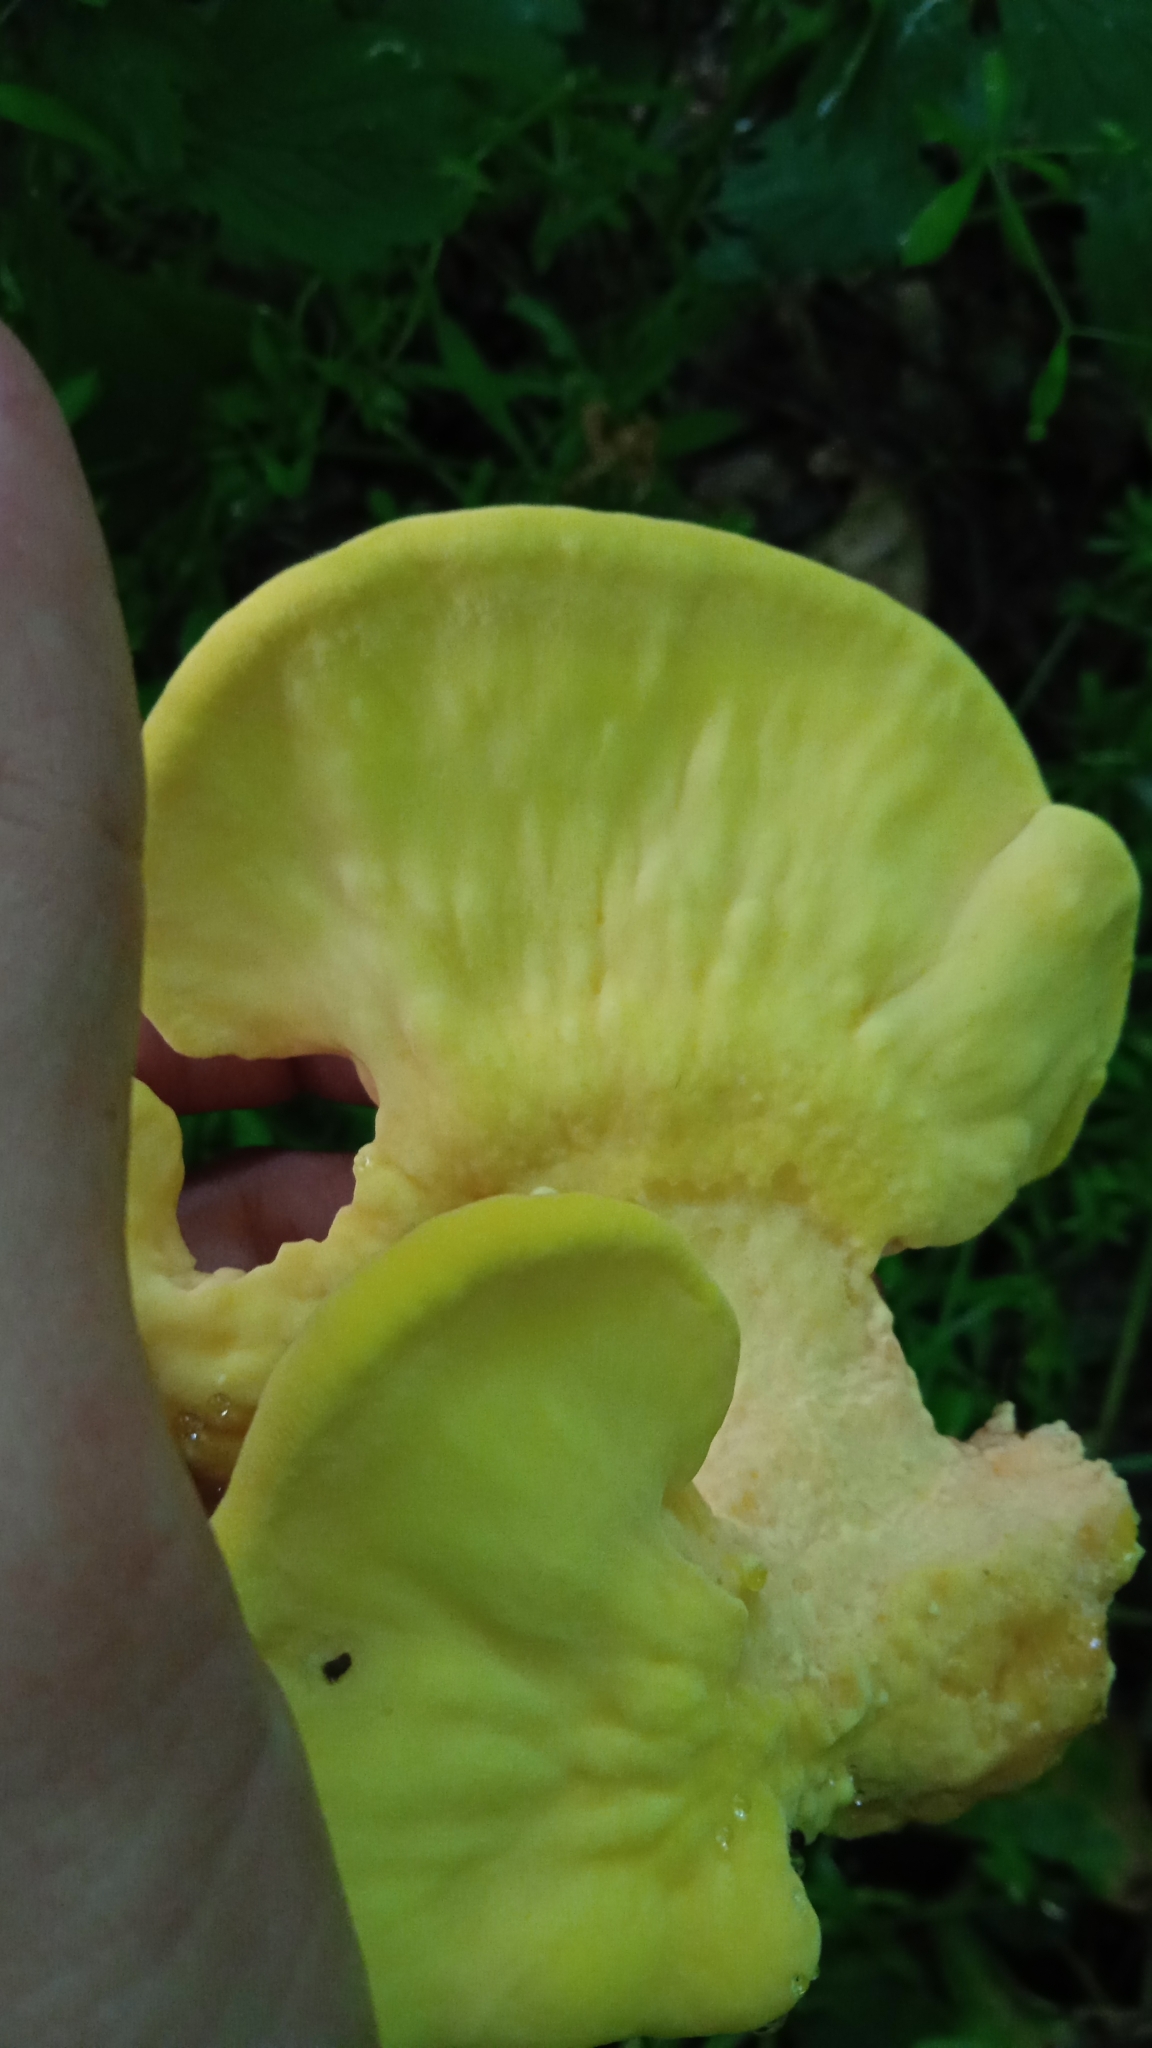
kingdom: Fungi
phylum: Basidiomycota
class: Agaricomycetes
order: Polyporales
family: Laetiporaceae
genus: Laetiporus
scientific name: Laetiporus sulphureus
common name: Chicken of the woods
